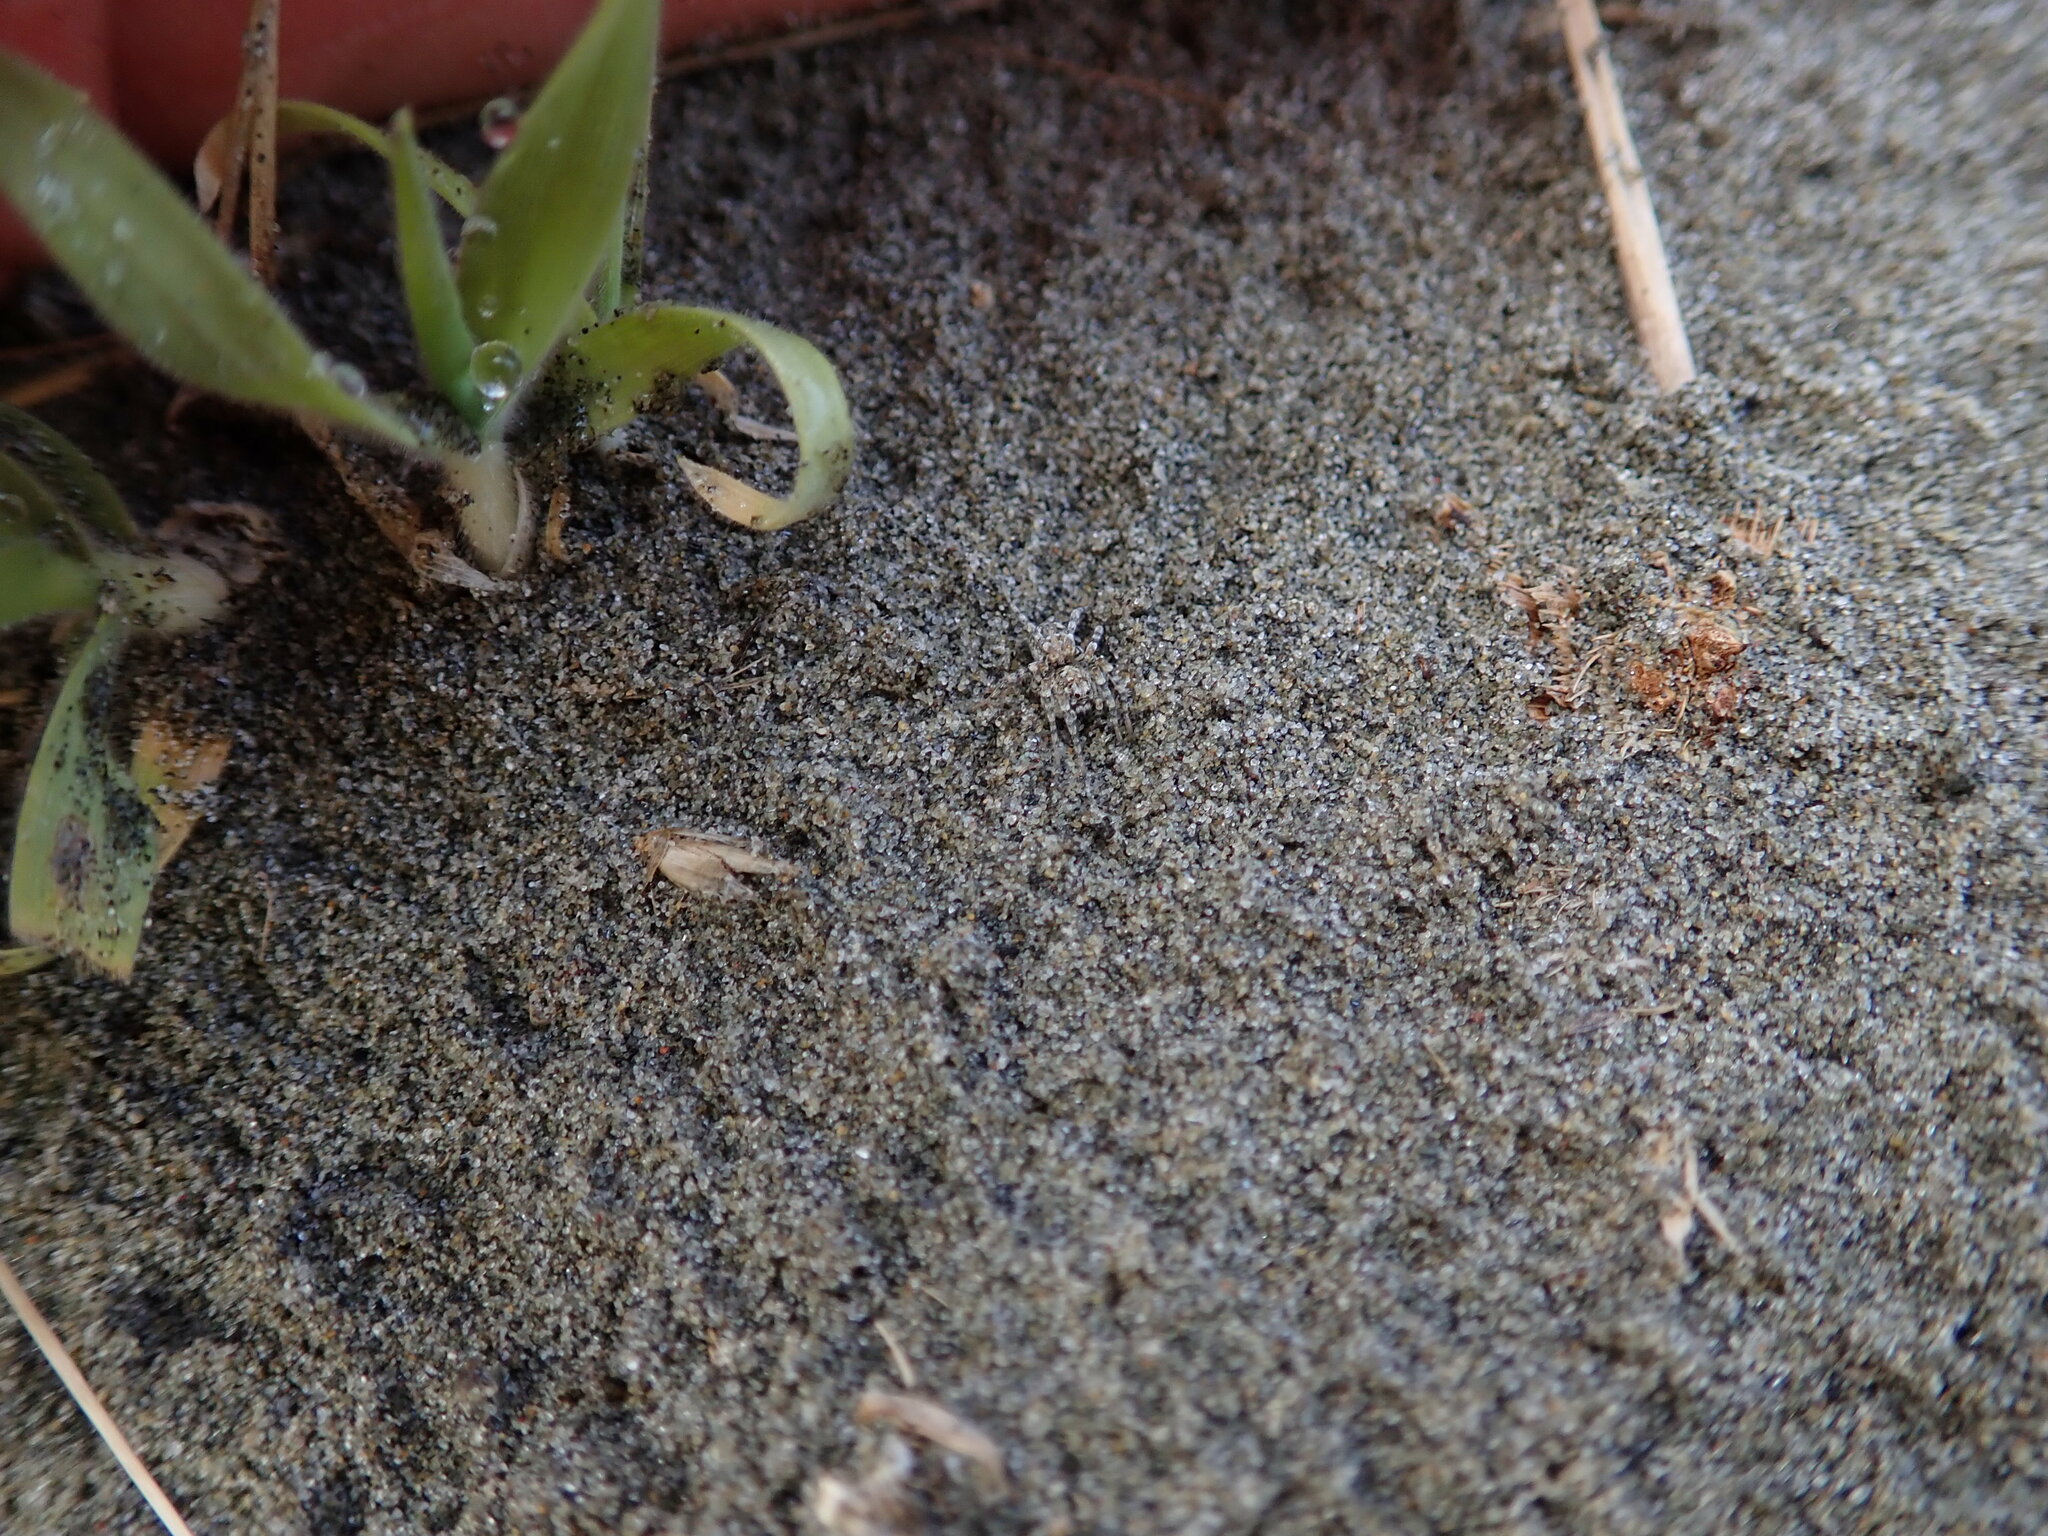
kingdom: Animalia
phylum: Arthropoda
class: Arachnida
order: Araneae
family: Lycosidae
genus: Anoteropsis
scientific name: Anoteropsis litoralis
